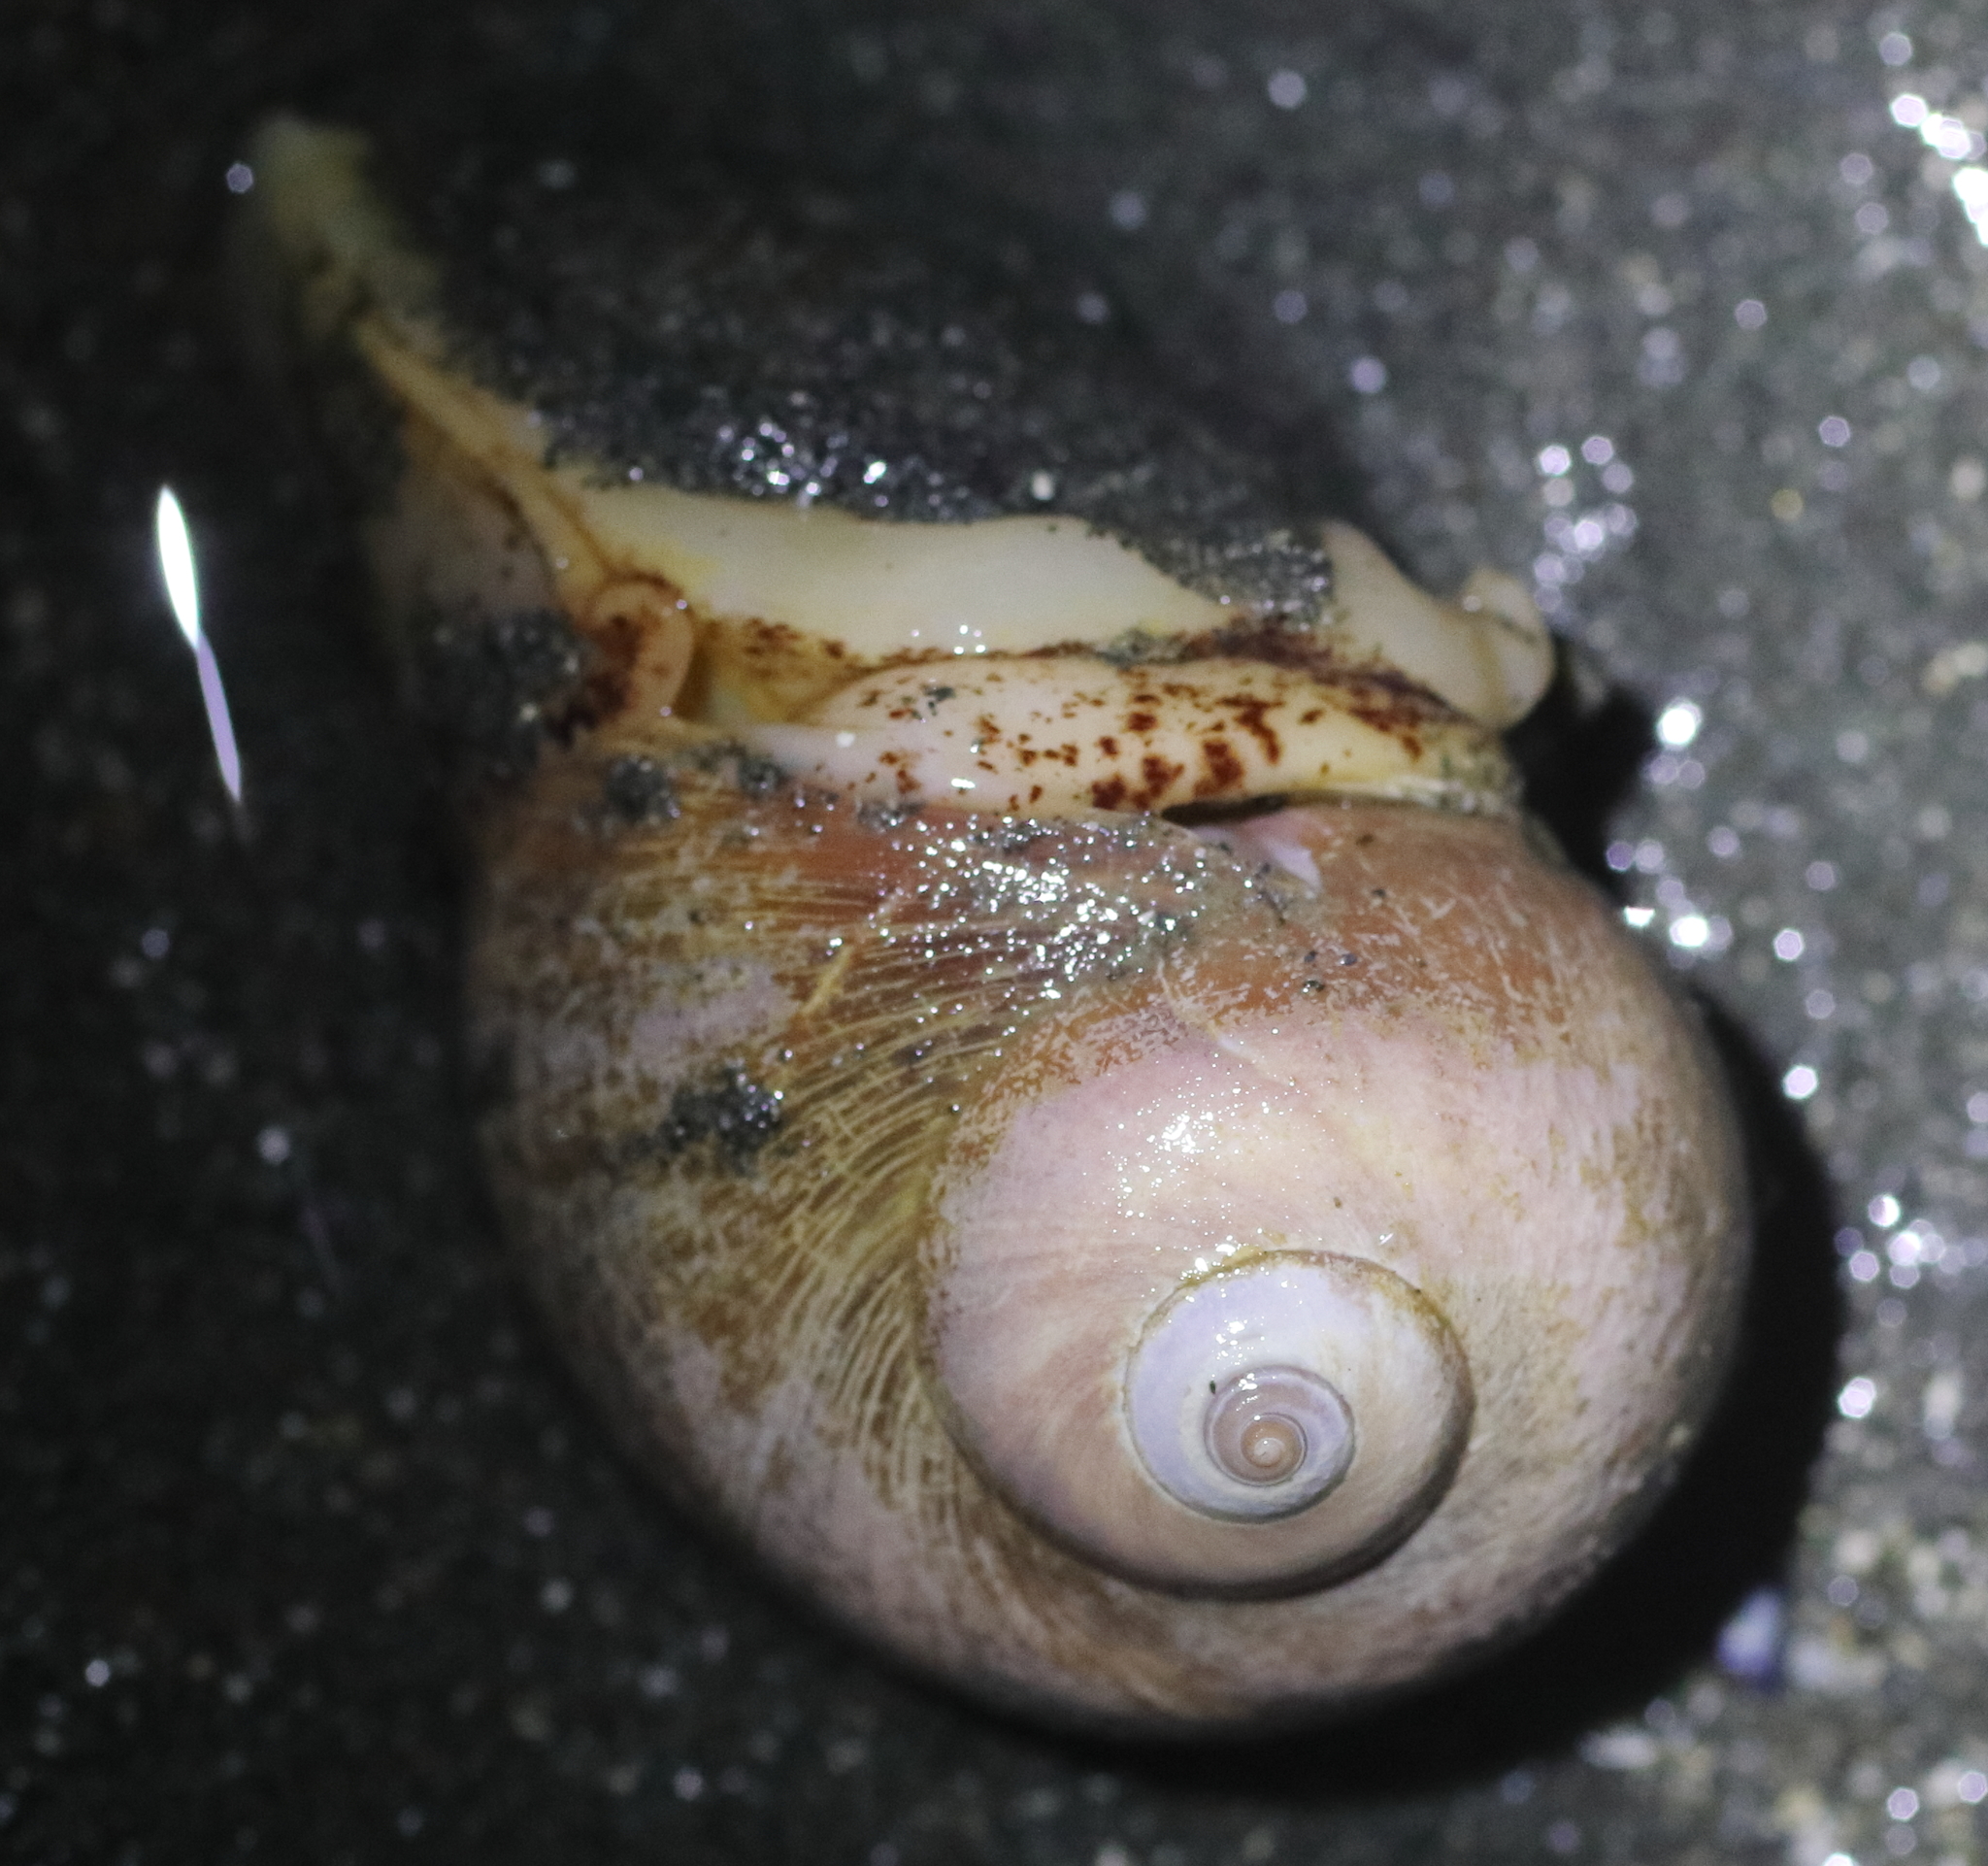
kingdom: Animalia
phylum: Mollusca
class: Gastropoda
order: Littorinimorpha
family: Naticidae
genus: Cryptonatica
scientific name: Cryptonatica aleutica
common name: Aleutian moon snail
